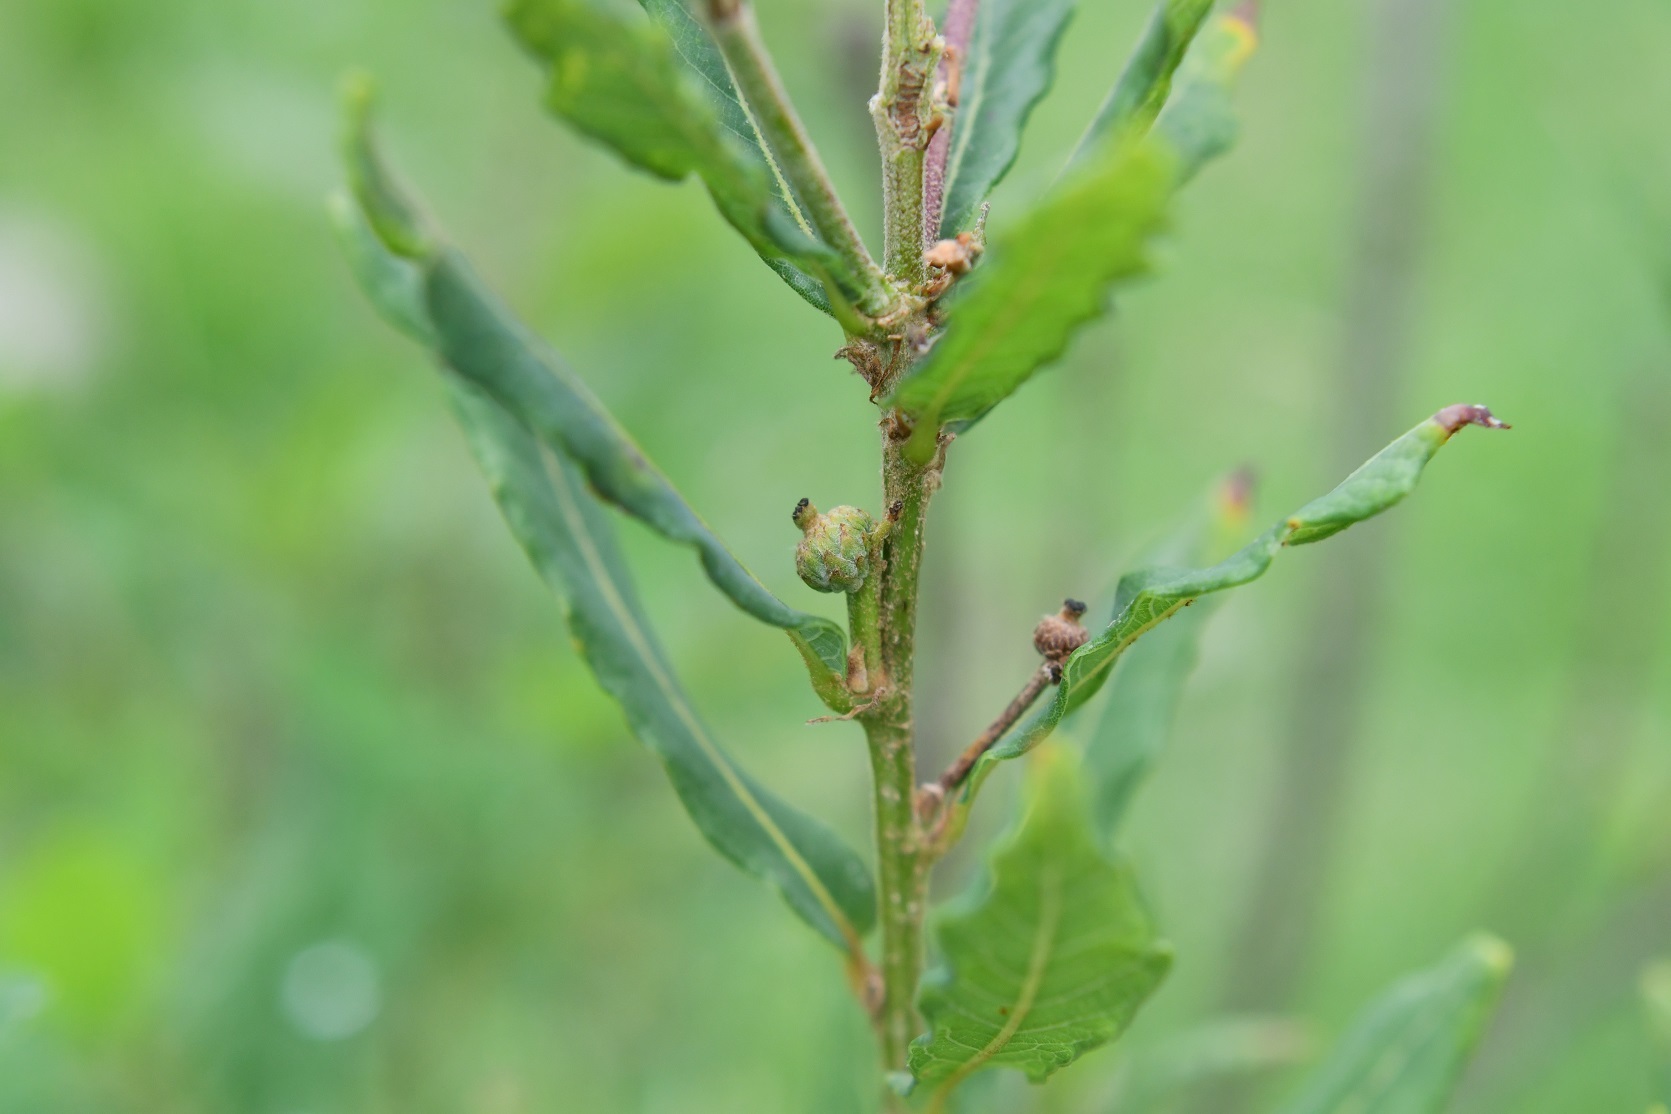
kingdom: Plantae
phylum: Tracheophyta
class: Magnoliopsida
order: Fagales
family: Fagaceae
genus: Quercus
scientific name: Quercus sebifera
